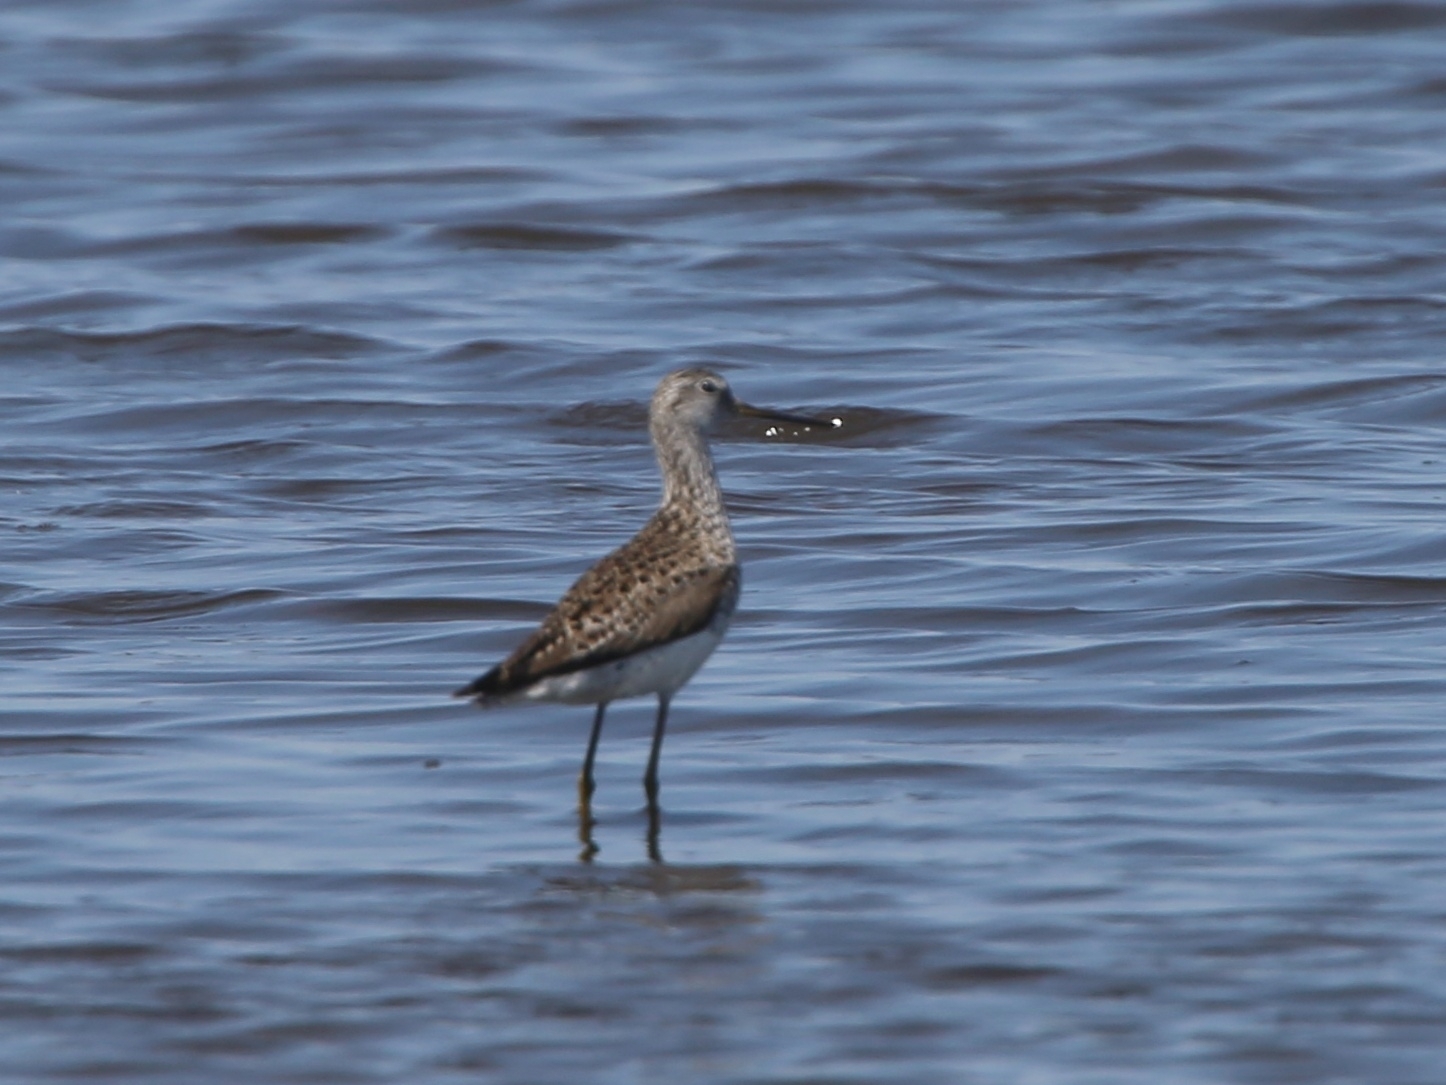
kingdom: Animalia
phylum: Chordata
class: Aves
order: Charadriiformes
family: Scolopacidae
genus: Tringa
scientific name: Tringa stagnatilis
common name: Marsh sandpiper
